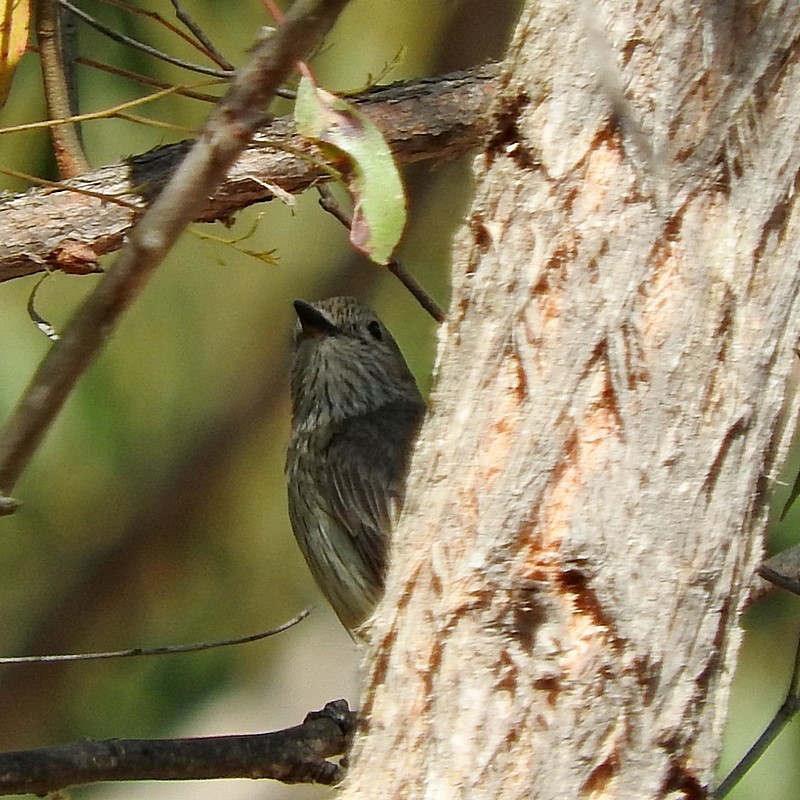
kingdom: Animalia
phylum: Chordata
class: Aves
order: Passeriformes
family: Pachycephalidae
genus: Pachycephala
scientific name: Pachycephala rufiventris
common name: Rufous whistler
